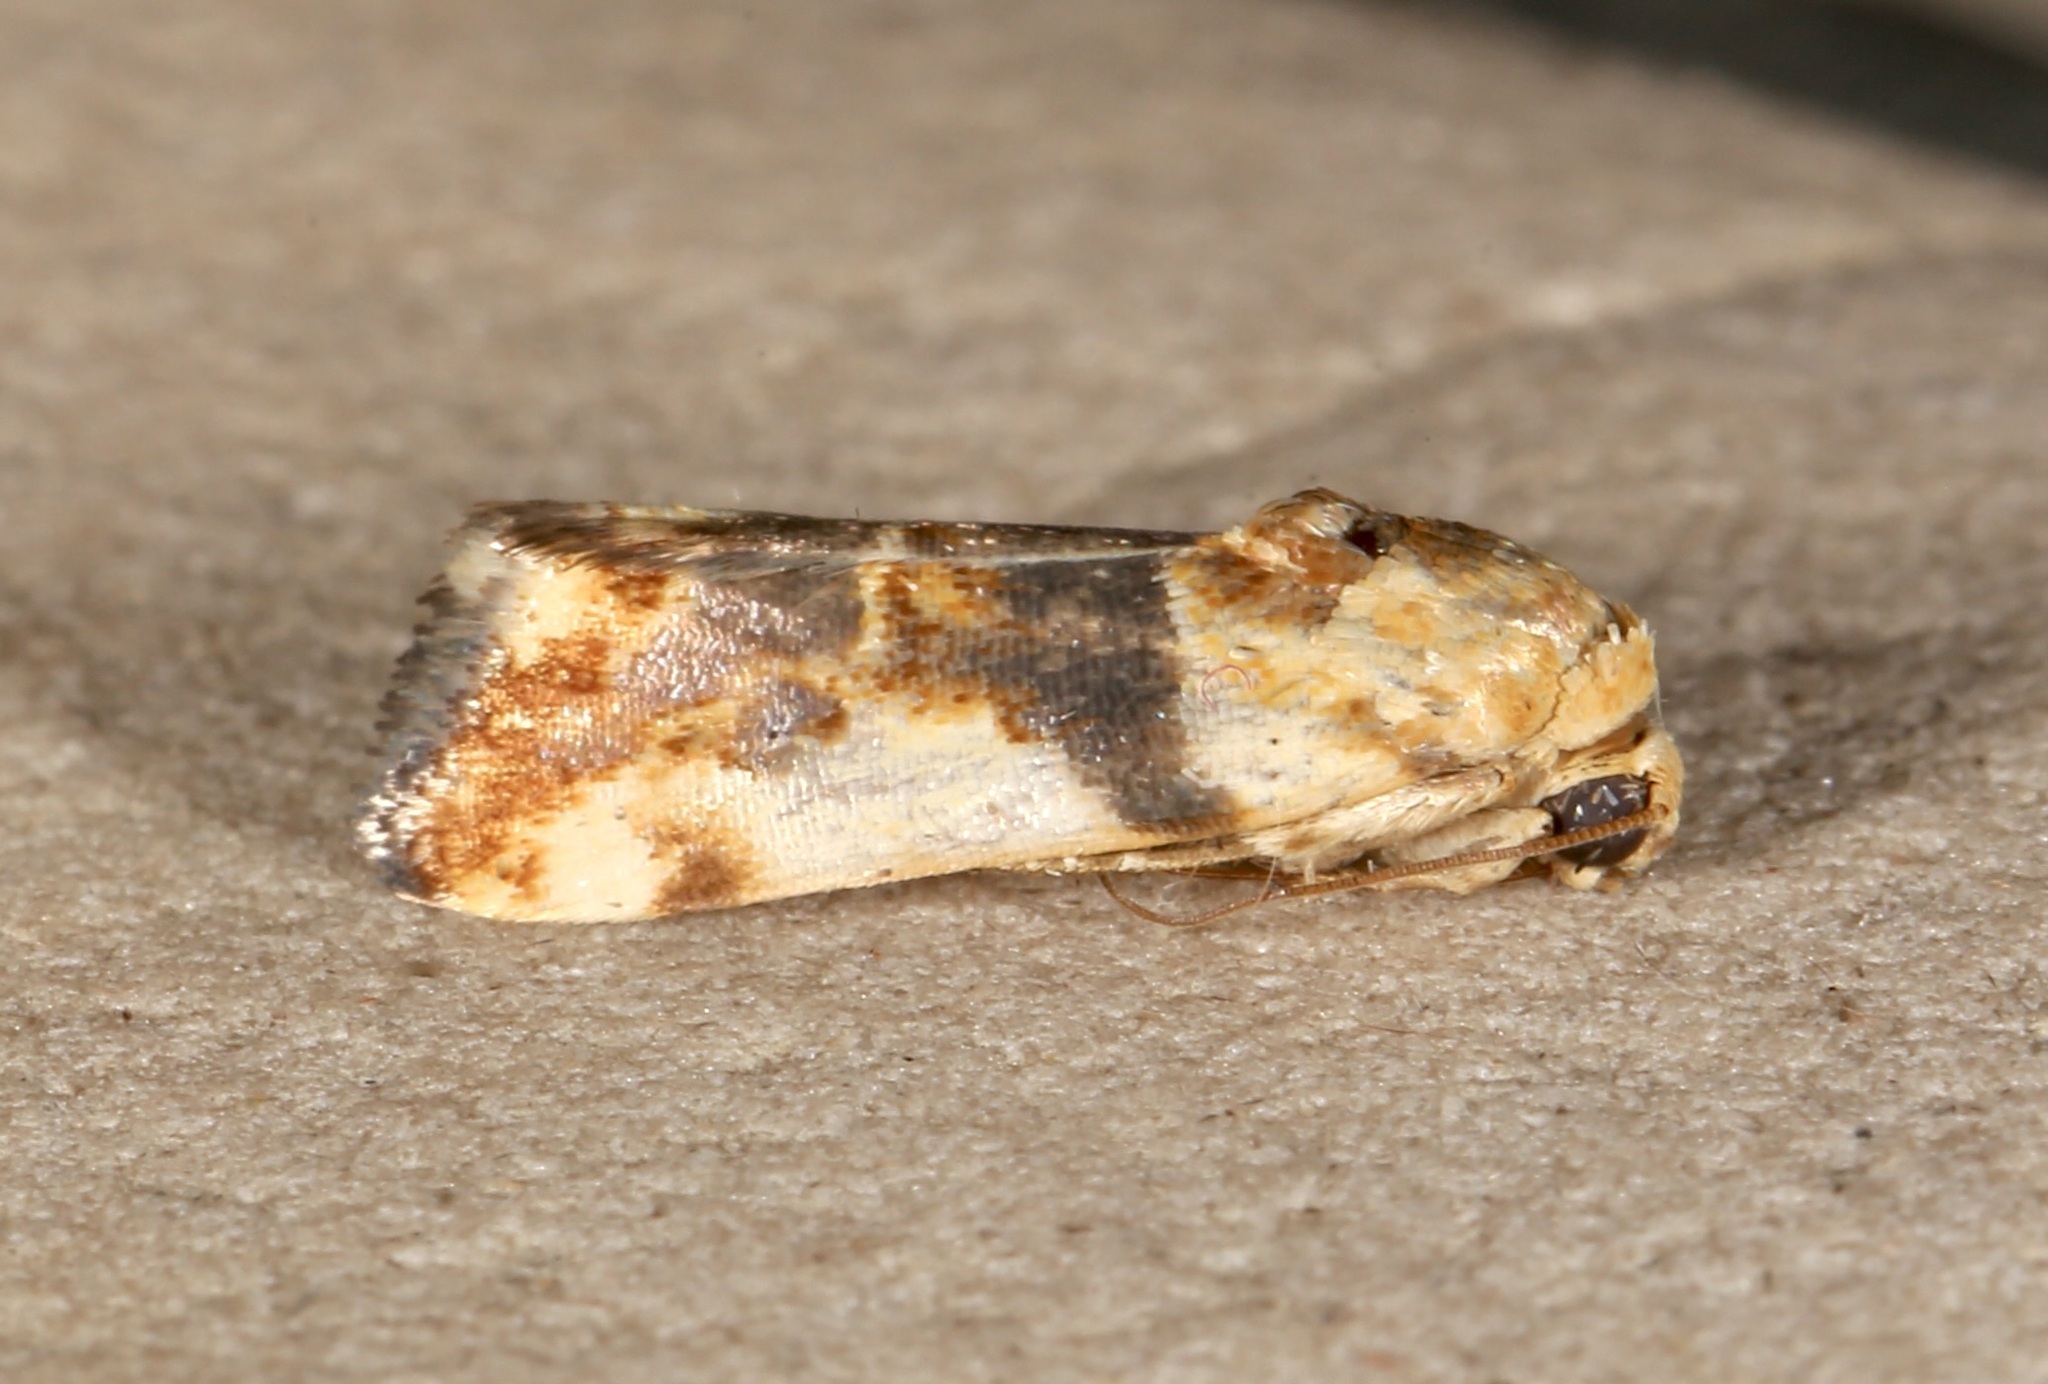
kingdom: Animalia
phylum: Arthropoda
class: Insecta
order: Lepidoptera
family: Noctuidae
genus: Acontia
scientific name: Acontia obatra
